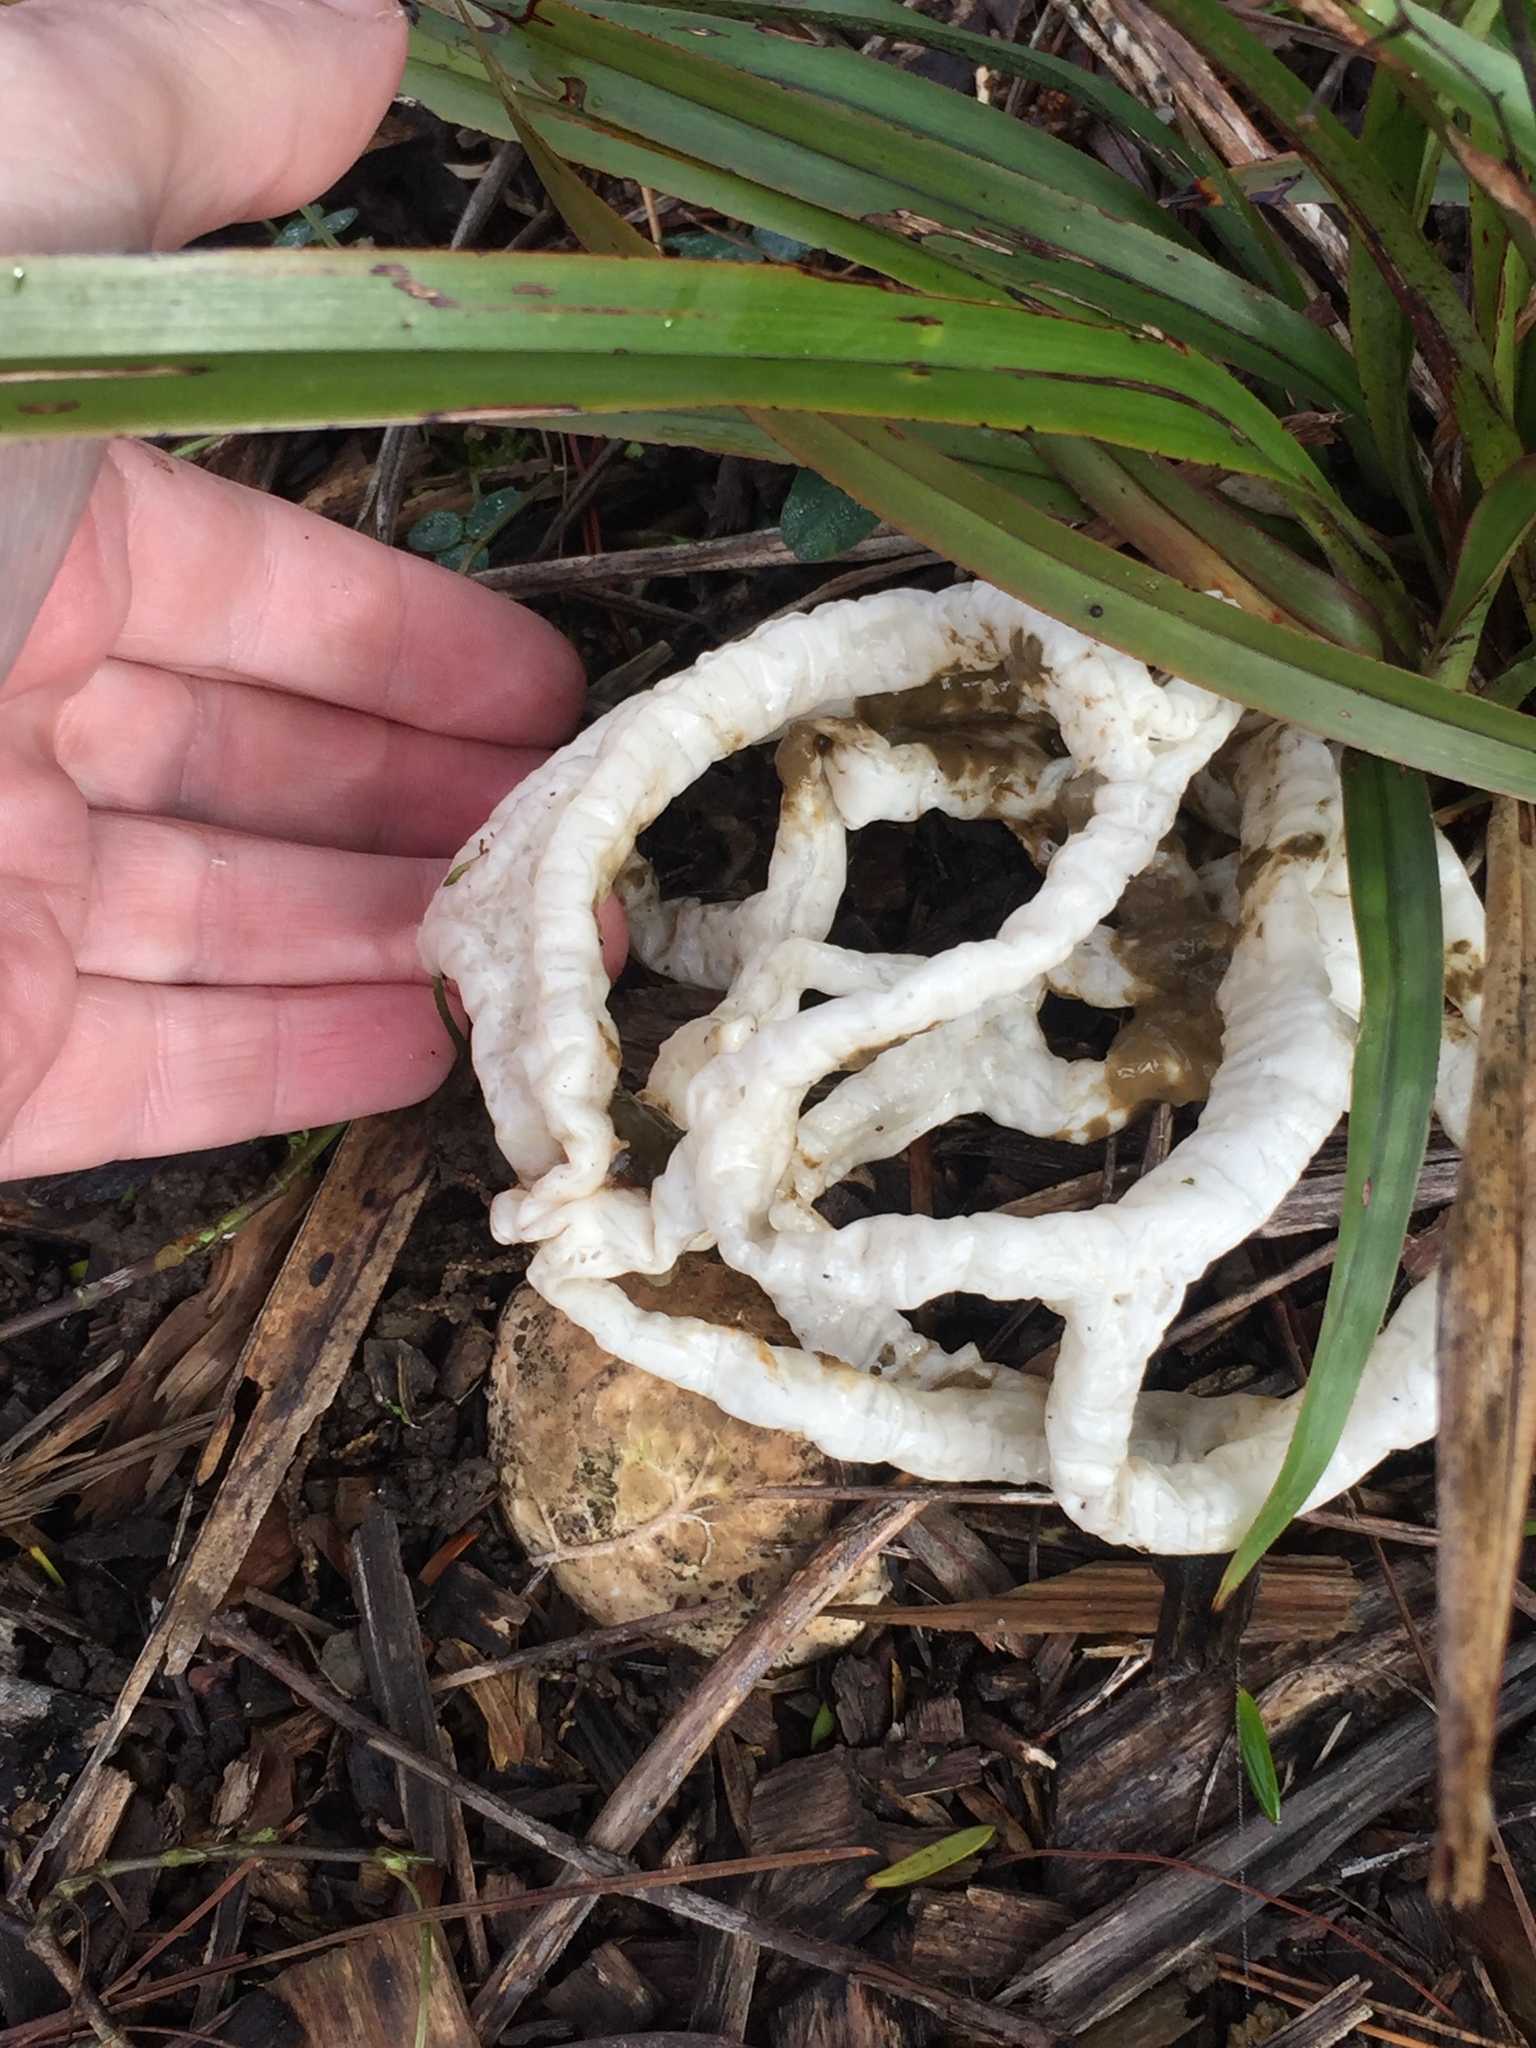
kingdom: Fungi
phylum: Basidiomycota
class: Agaricomycetes
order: Phallales
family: Phallaceae
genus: Ileodictyon
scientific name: Ileodictyon cibarium
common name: Basket fungus
